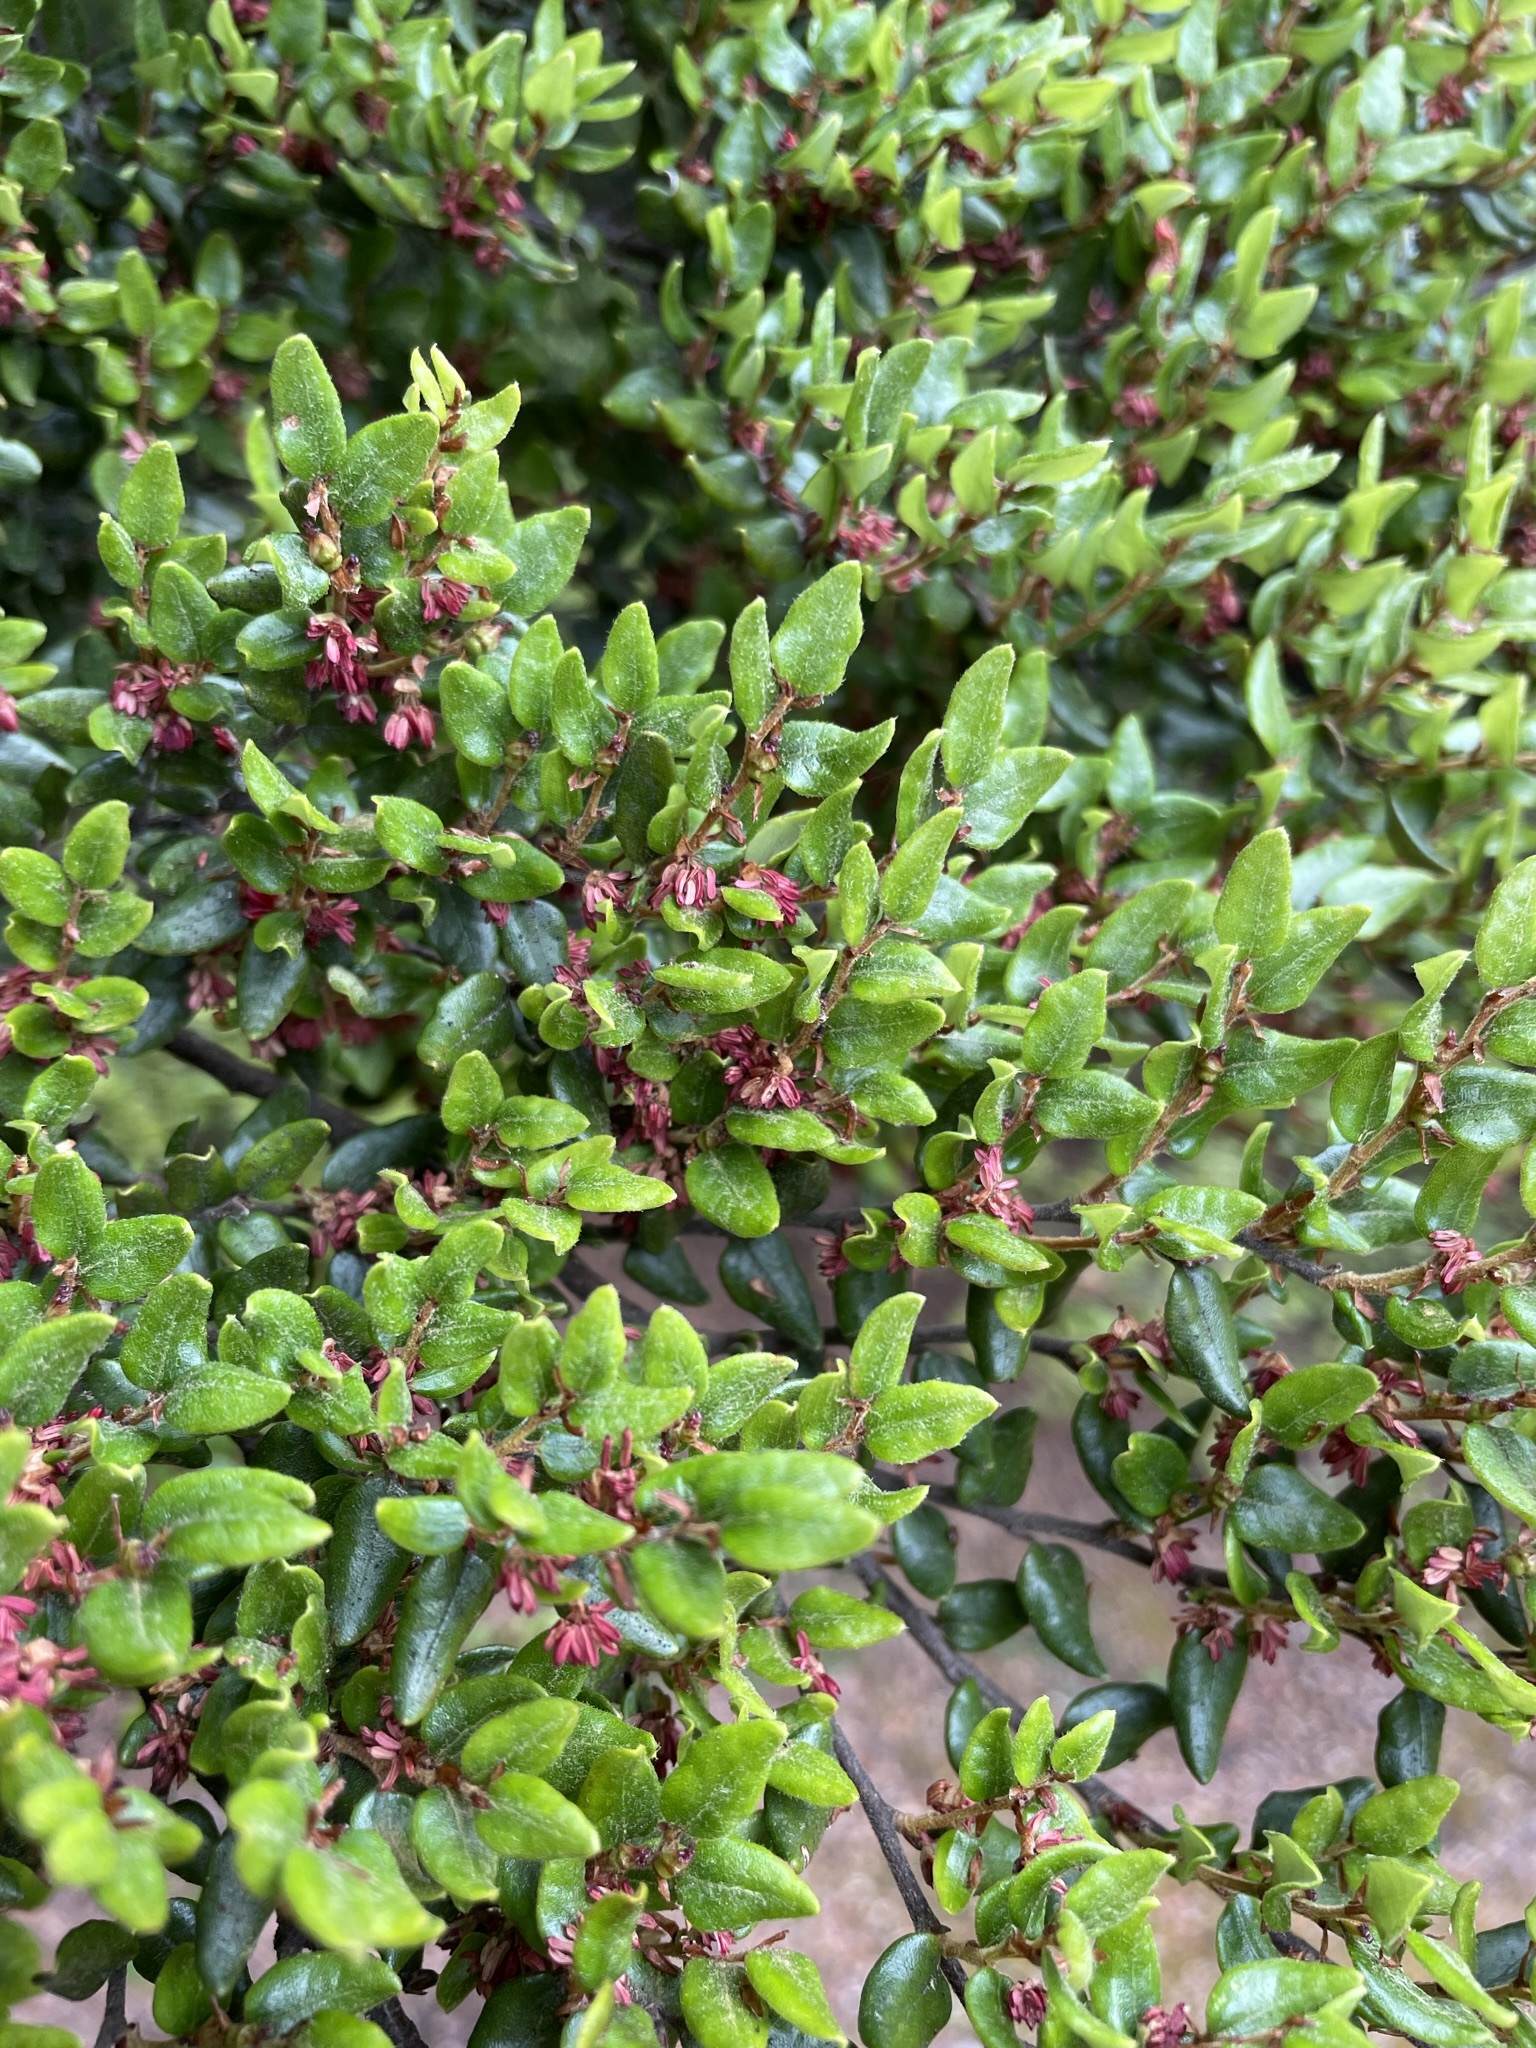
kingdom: Plantae
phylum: Tracheophyta
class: Magnoliopsida
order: Fagales
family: Nothofagaceae
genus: Nothofagus
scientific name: Nothofagus cliffortioides
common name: Mountain beech
